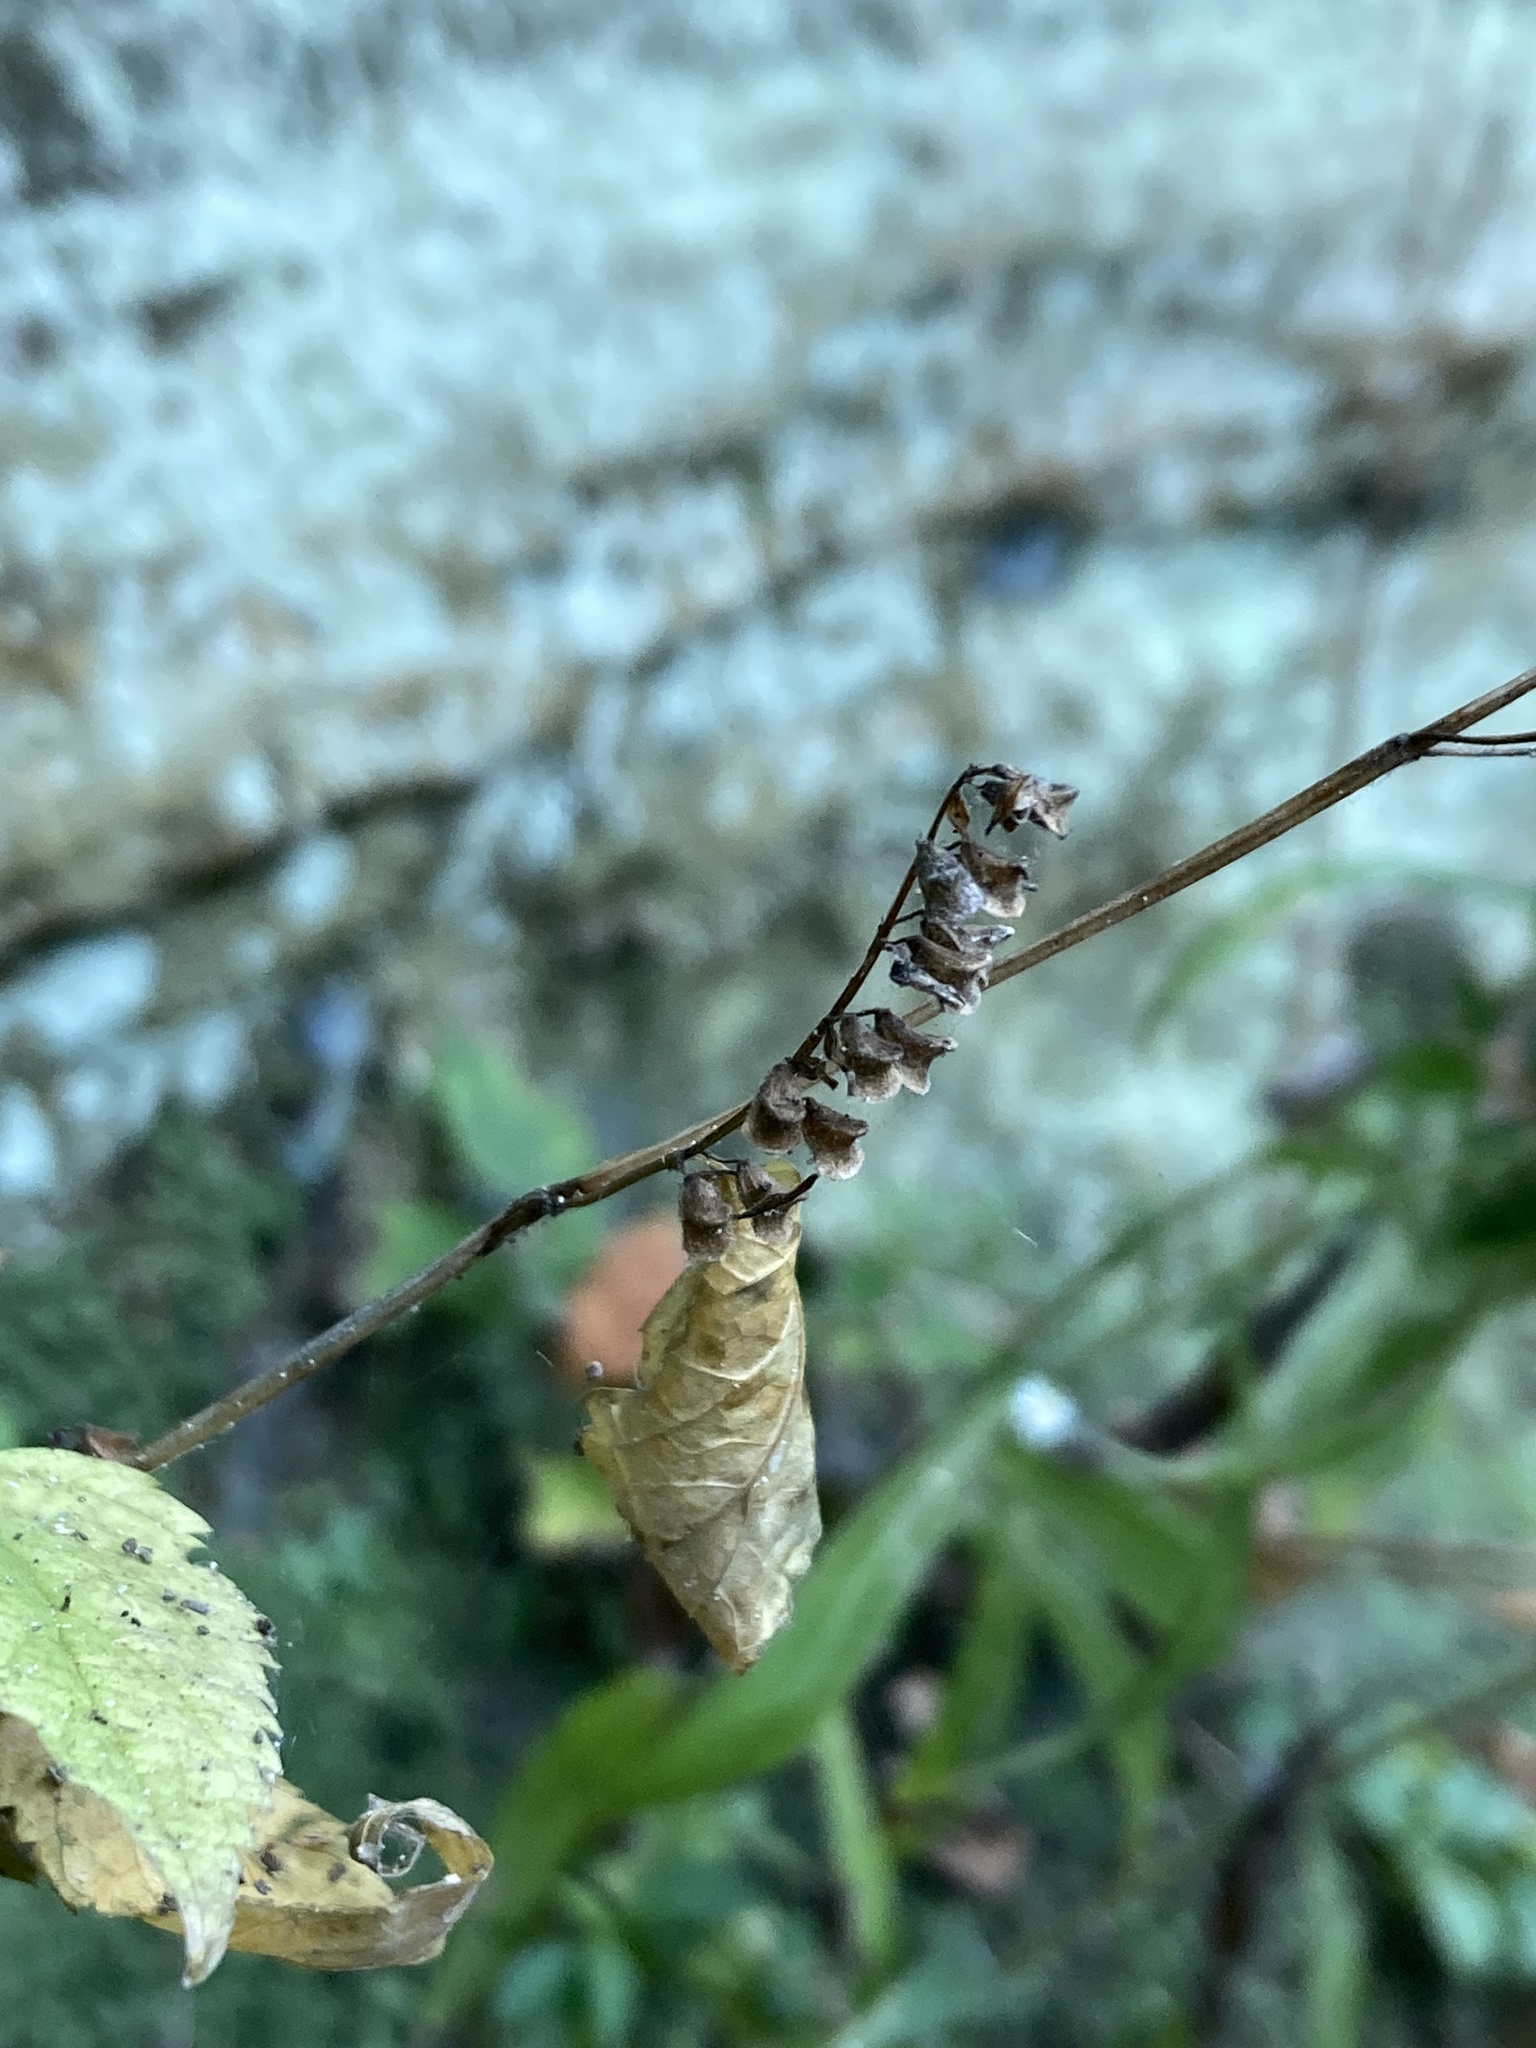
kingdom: Plantae
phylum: Tracheophyta
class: Magnoliopsida
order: Lamiales
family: Lamiaceae
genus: Scutellaria
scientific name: Scutellaria lateriflora
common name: Blue skullcap
